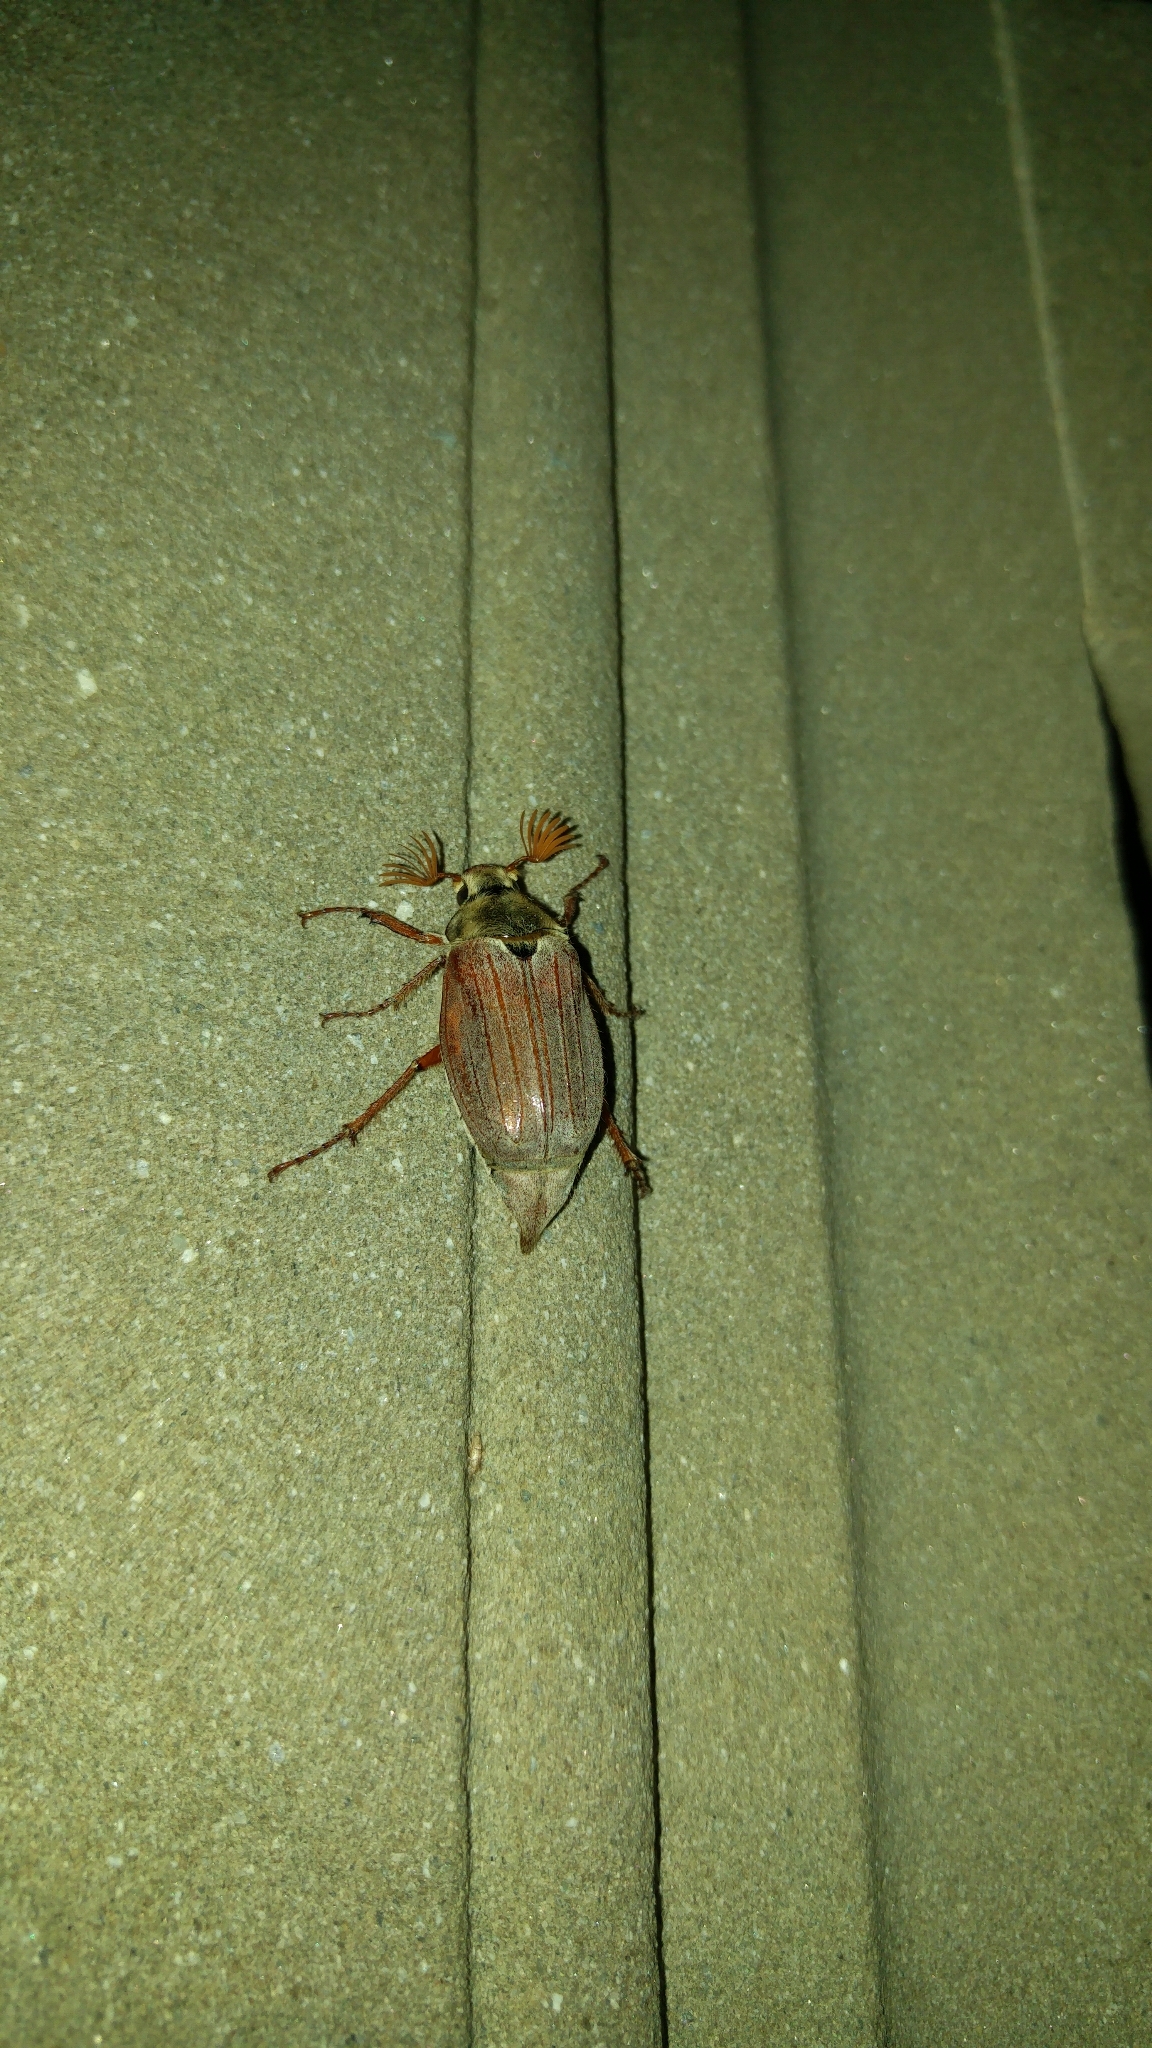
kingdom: Animalia
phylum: Arthropoda
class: Insecta
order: Coleoptera
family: Scarabaeidae
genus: Melolontha
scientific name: Melolontha melolontha
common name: Cockchafer maybeetle
